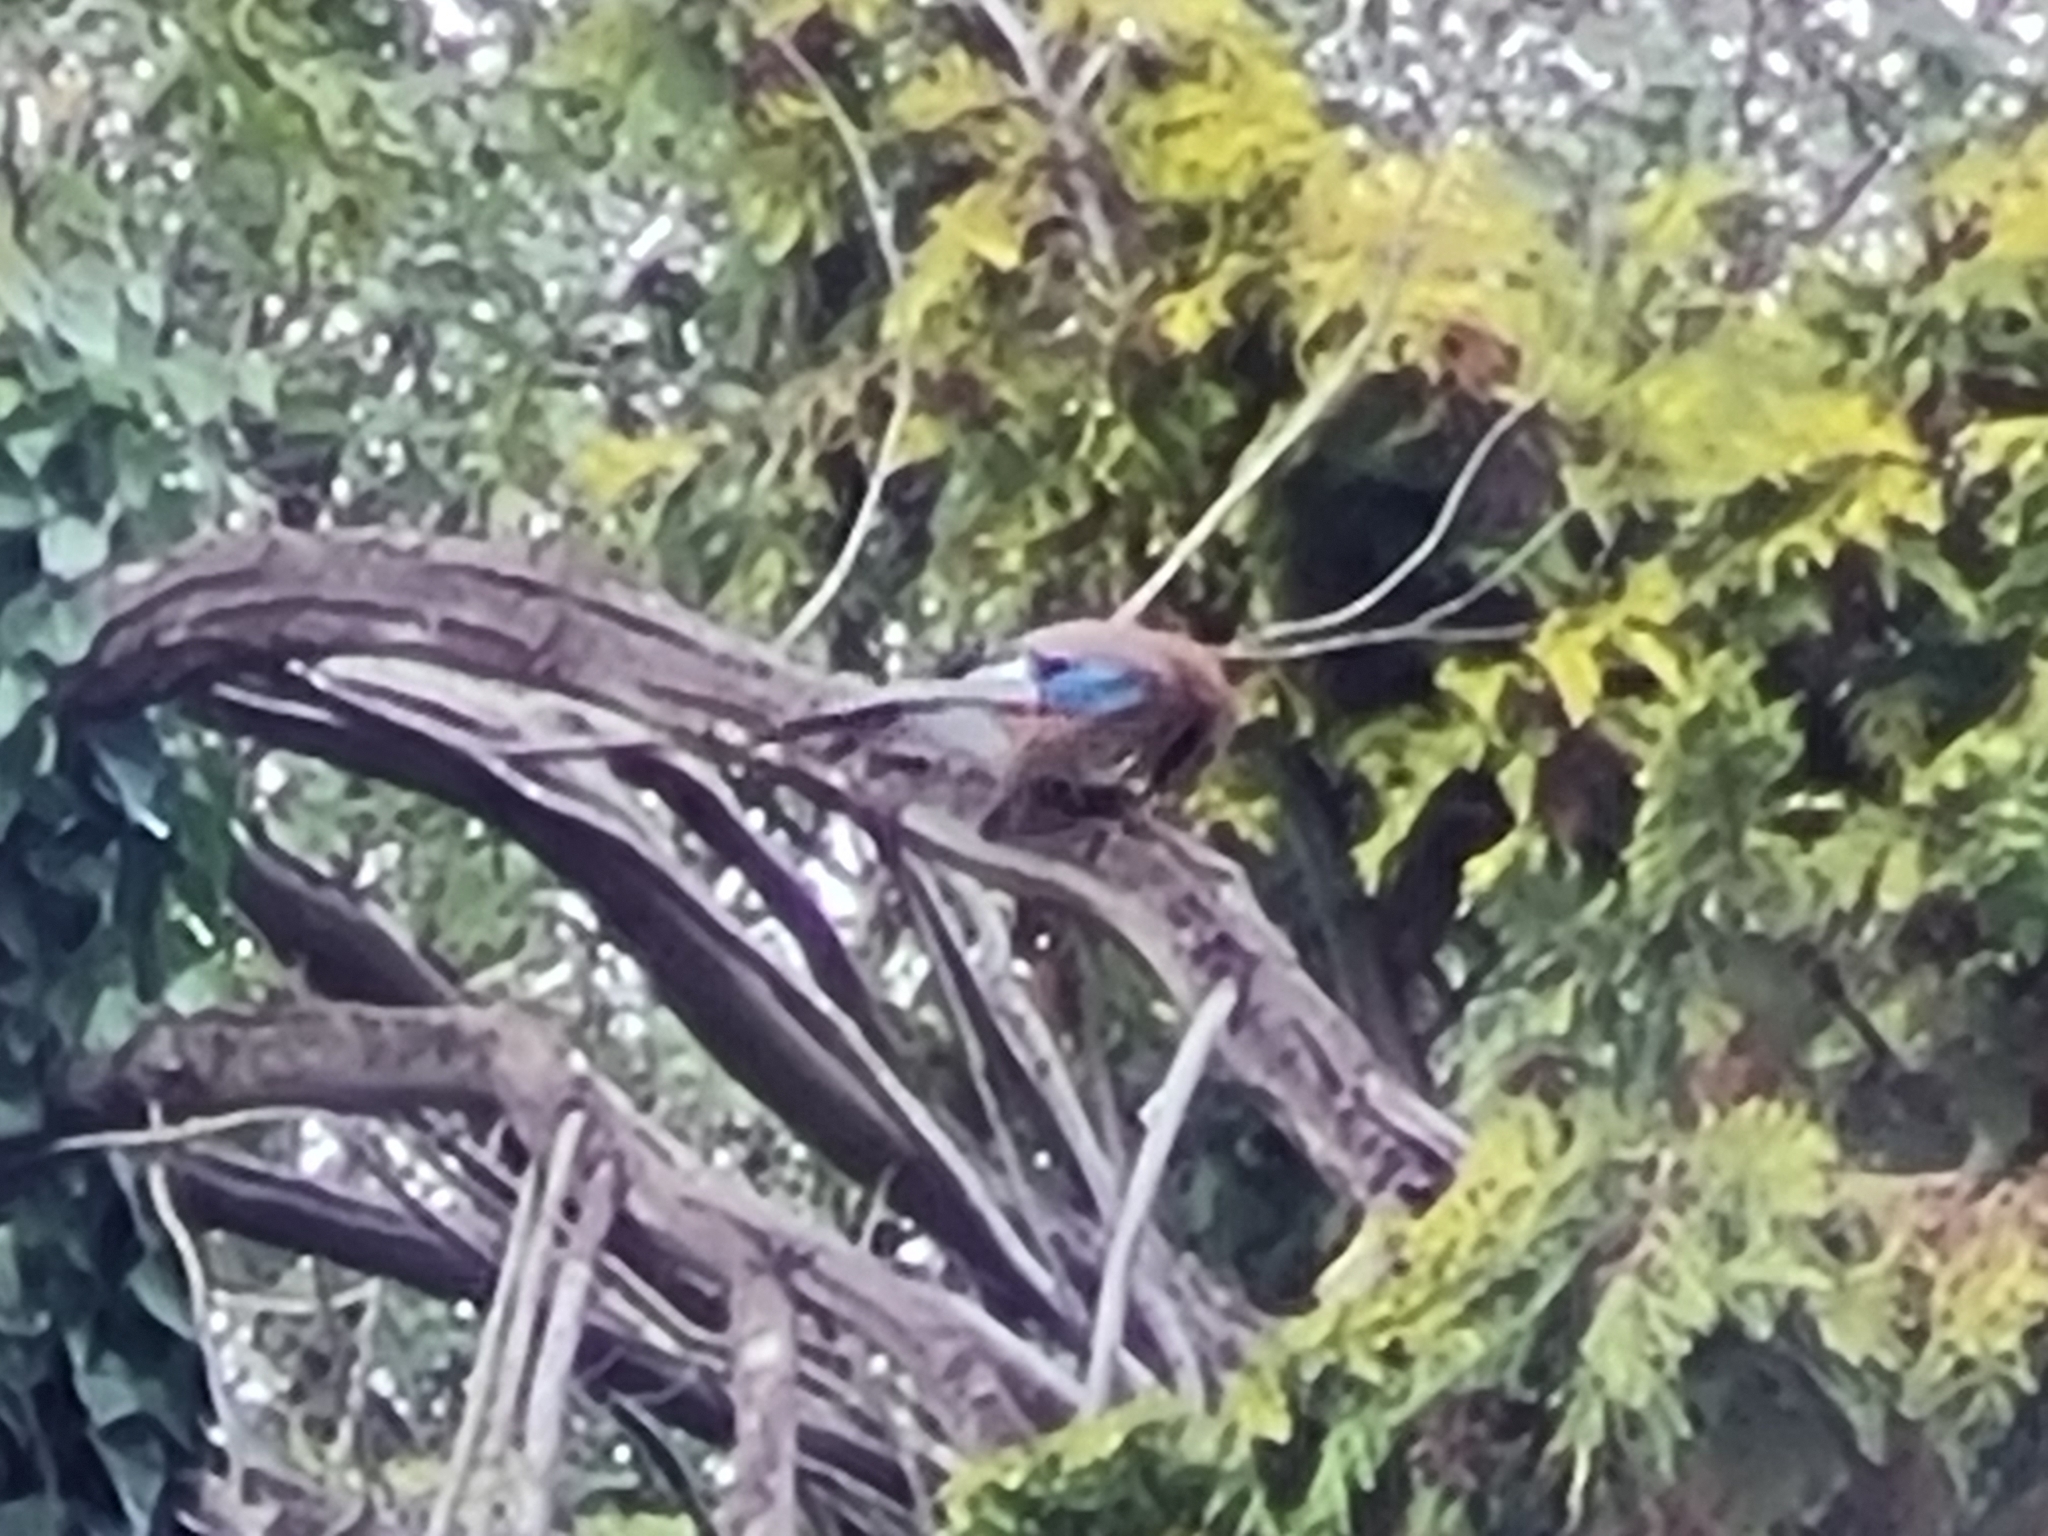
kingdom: Animalia
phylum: Chordata
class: Aves
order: Passeriformes
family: Corvidae
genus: Garrulus
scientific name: Garrulus glandarius
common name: Eurasian jay
